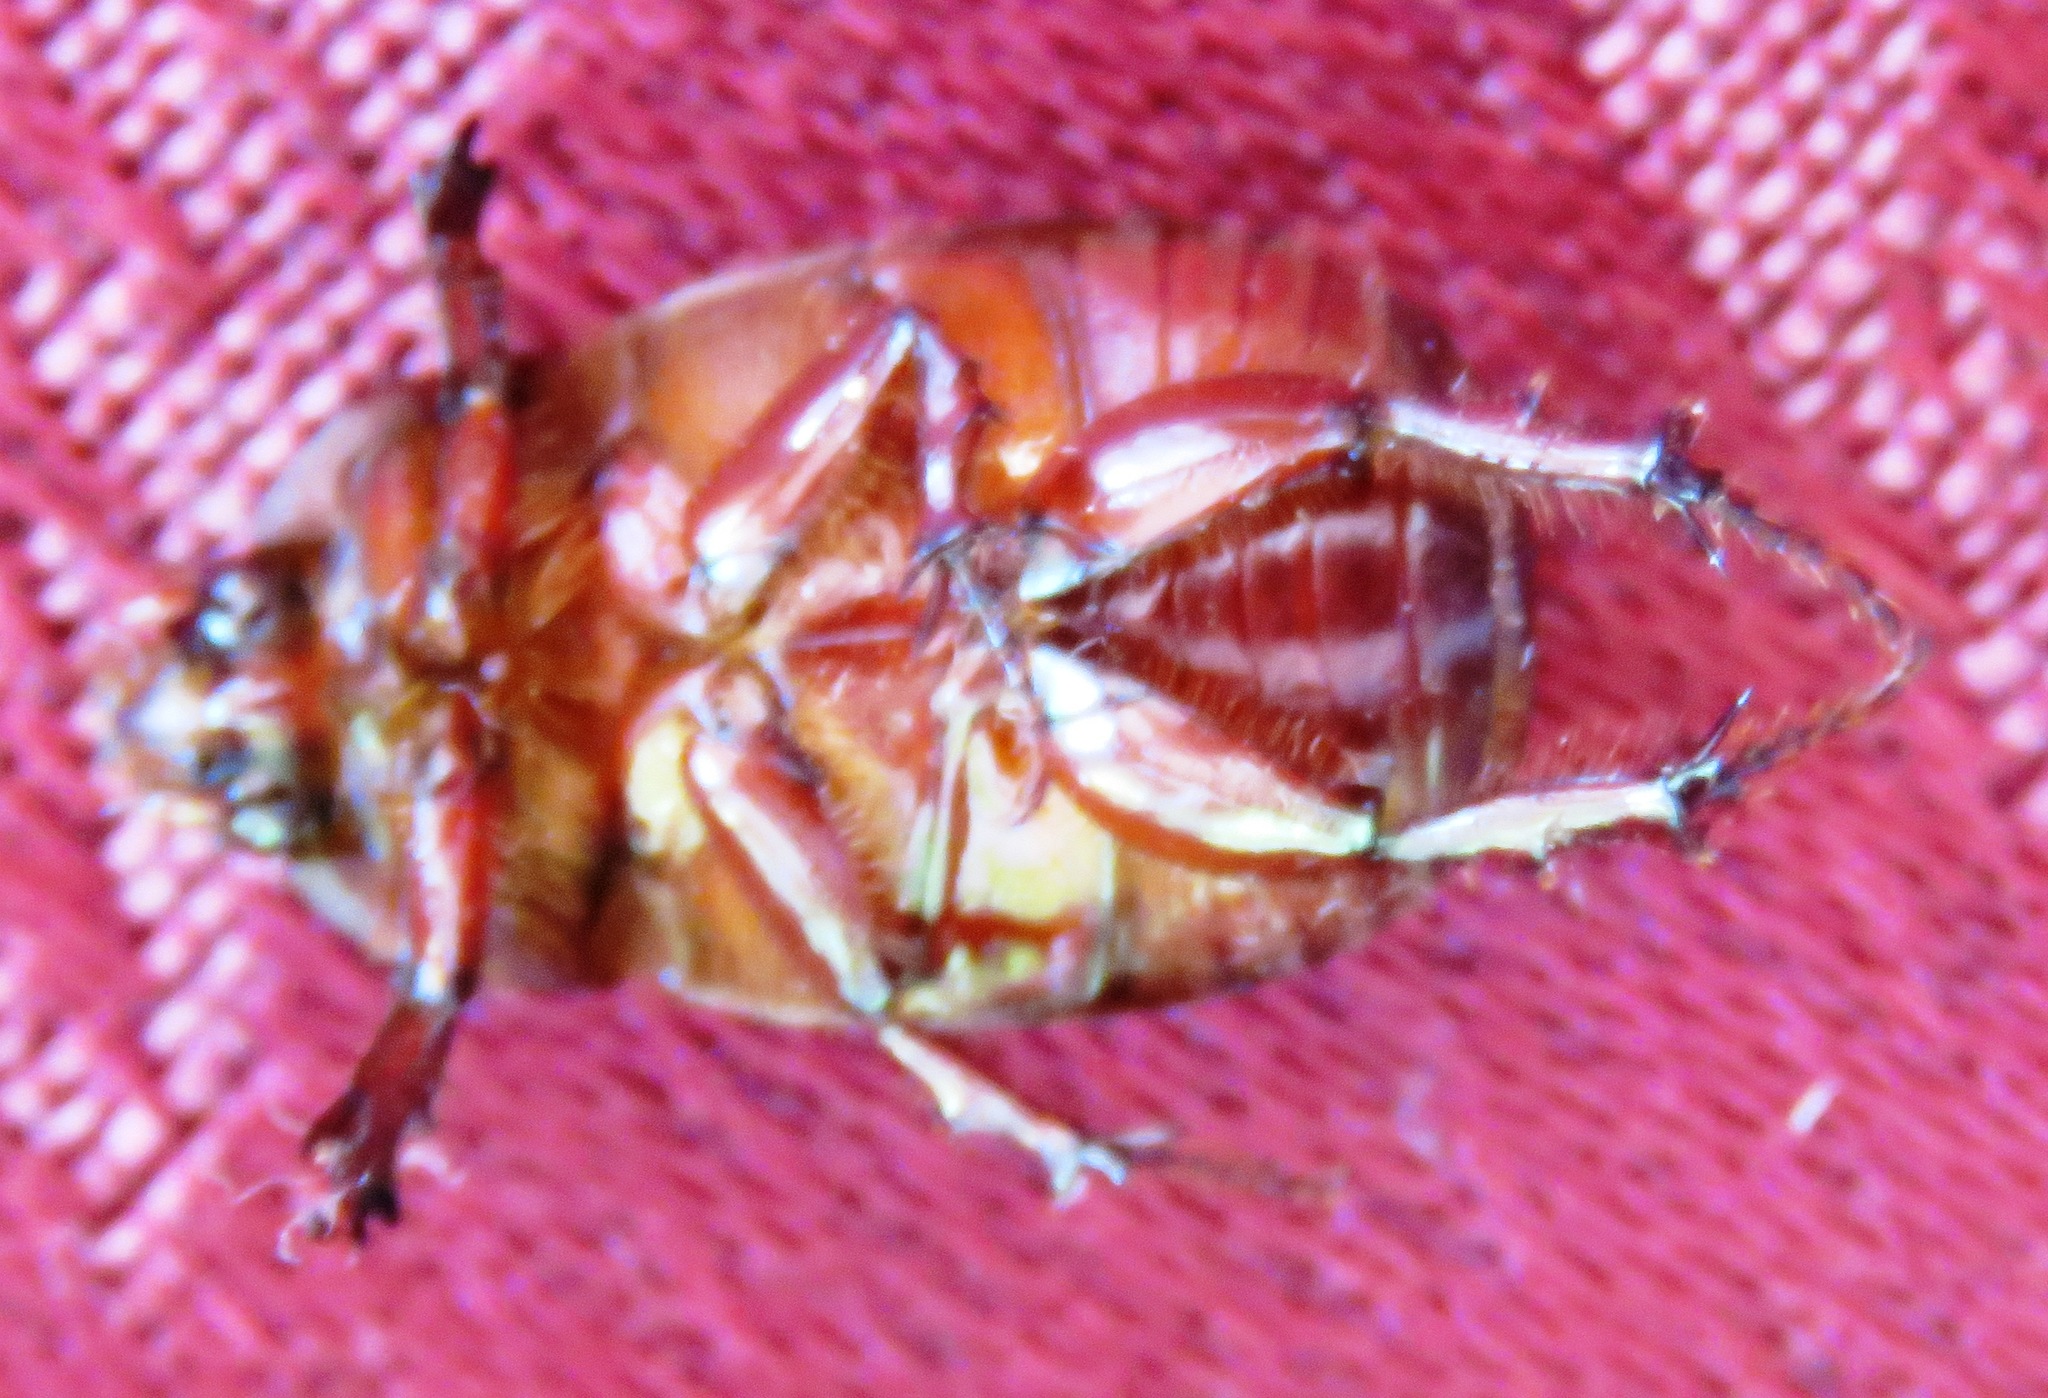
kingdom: Animalia
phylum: Arthropoda
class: Insecta
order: Coleoptera
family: Scarabaeidae
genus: Ligyrus
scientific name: Ligyrus nasutus
